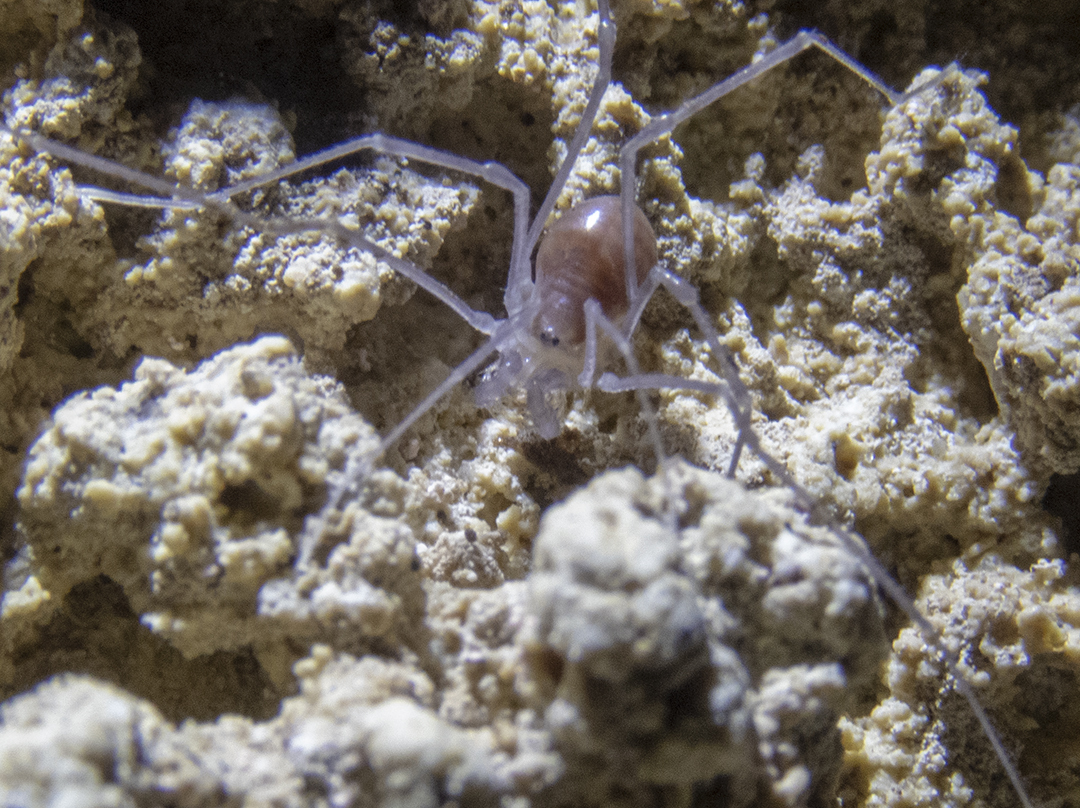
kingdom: Animalia
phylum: Arthropoda
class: Arachnida
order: Opiliones
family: Triaenonychidae
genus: Hendea
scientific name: Hendea myersi
